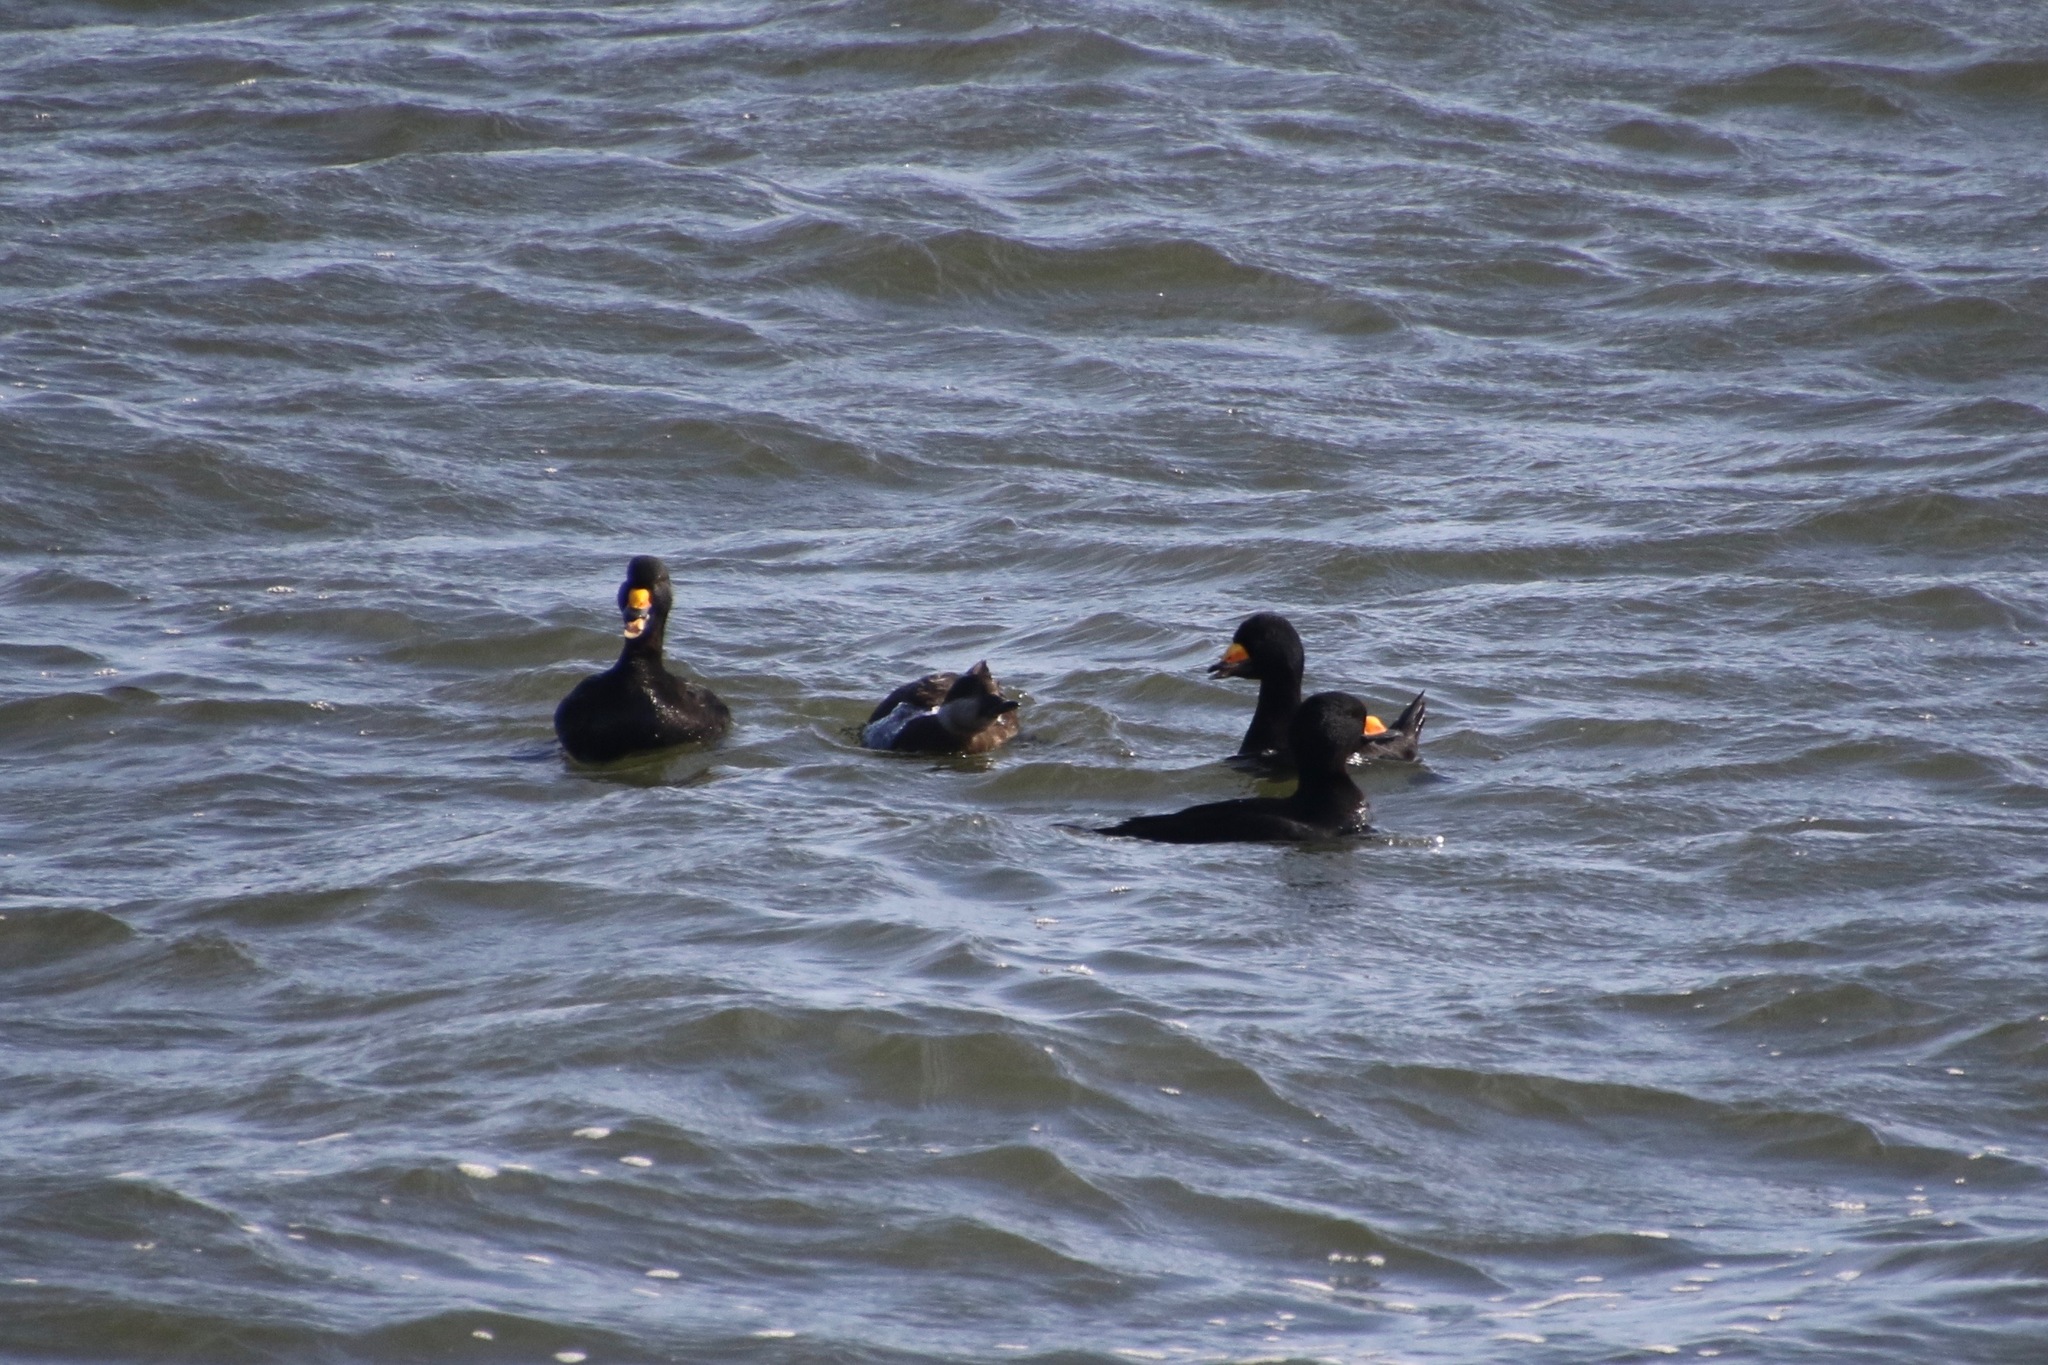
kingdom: Animalia
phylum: Chordata
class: Aves
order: Anseriformes
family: Anatidae
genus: Melanitta
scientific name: Melanitta americana
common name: Black scoter
